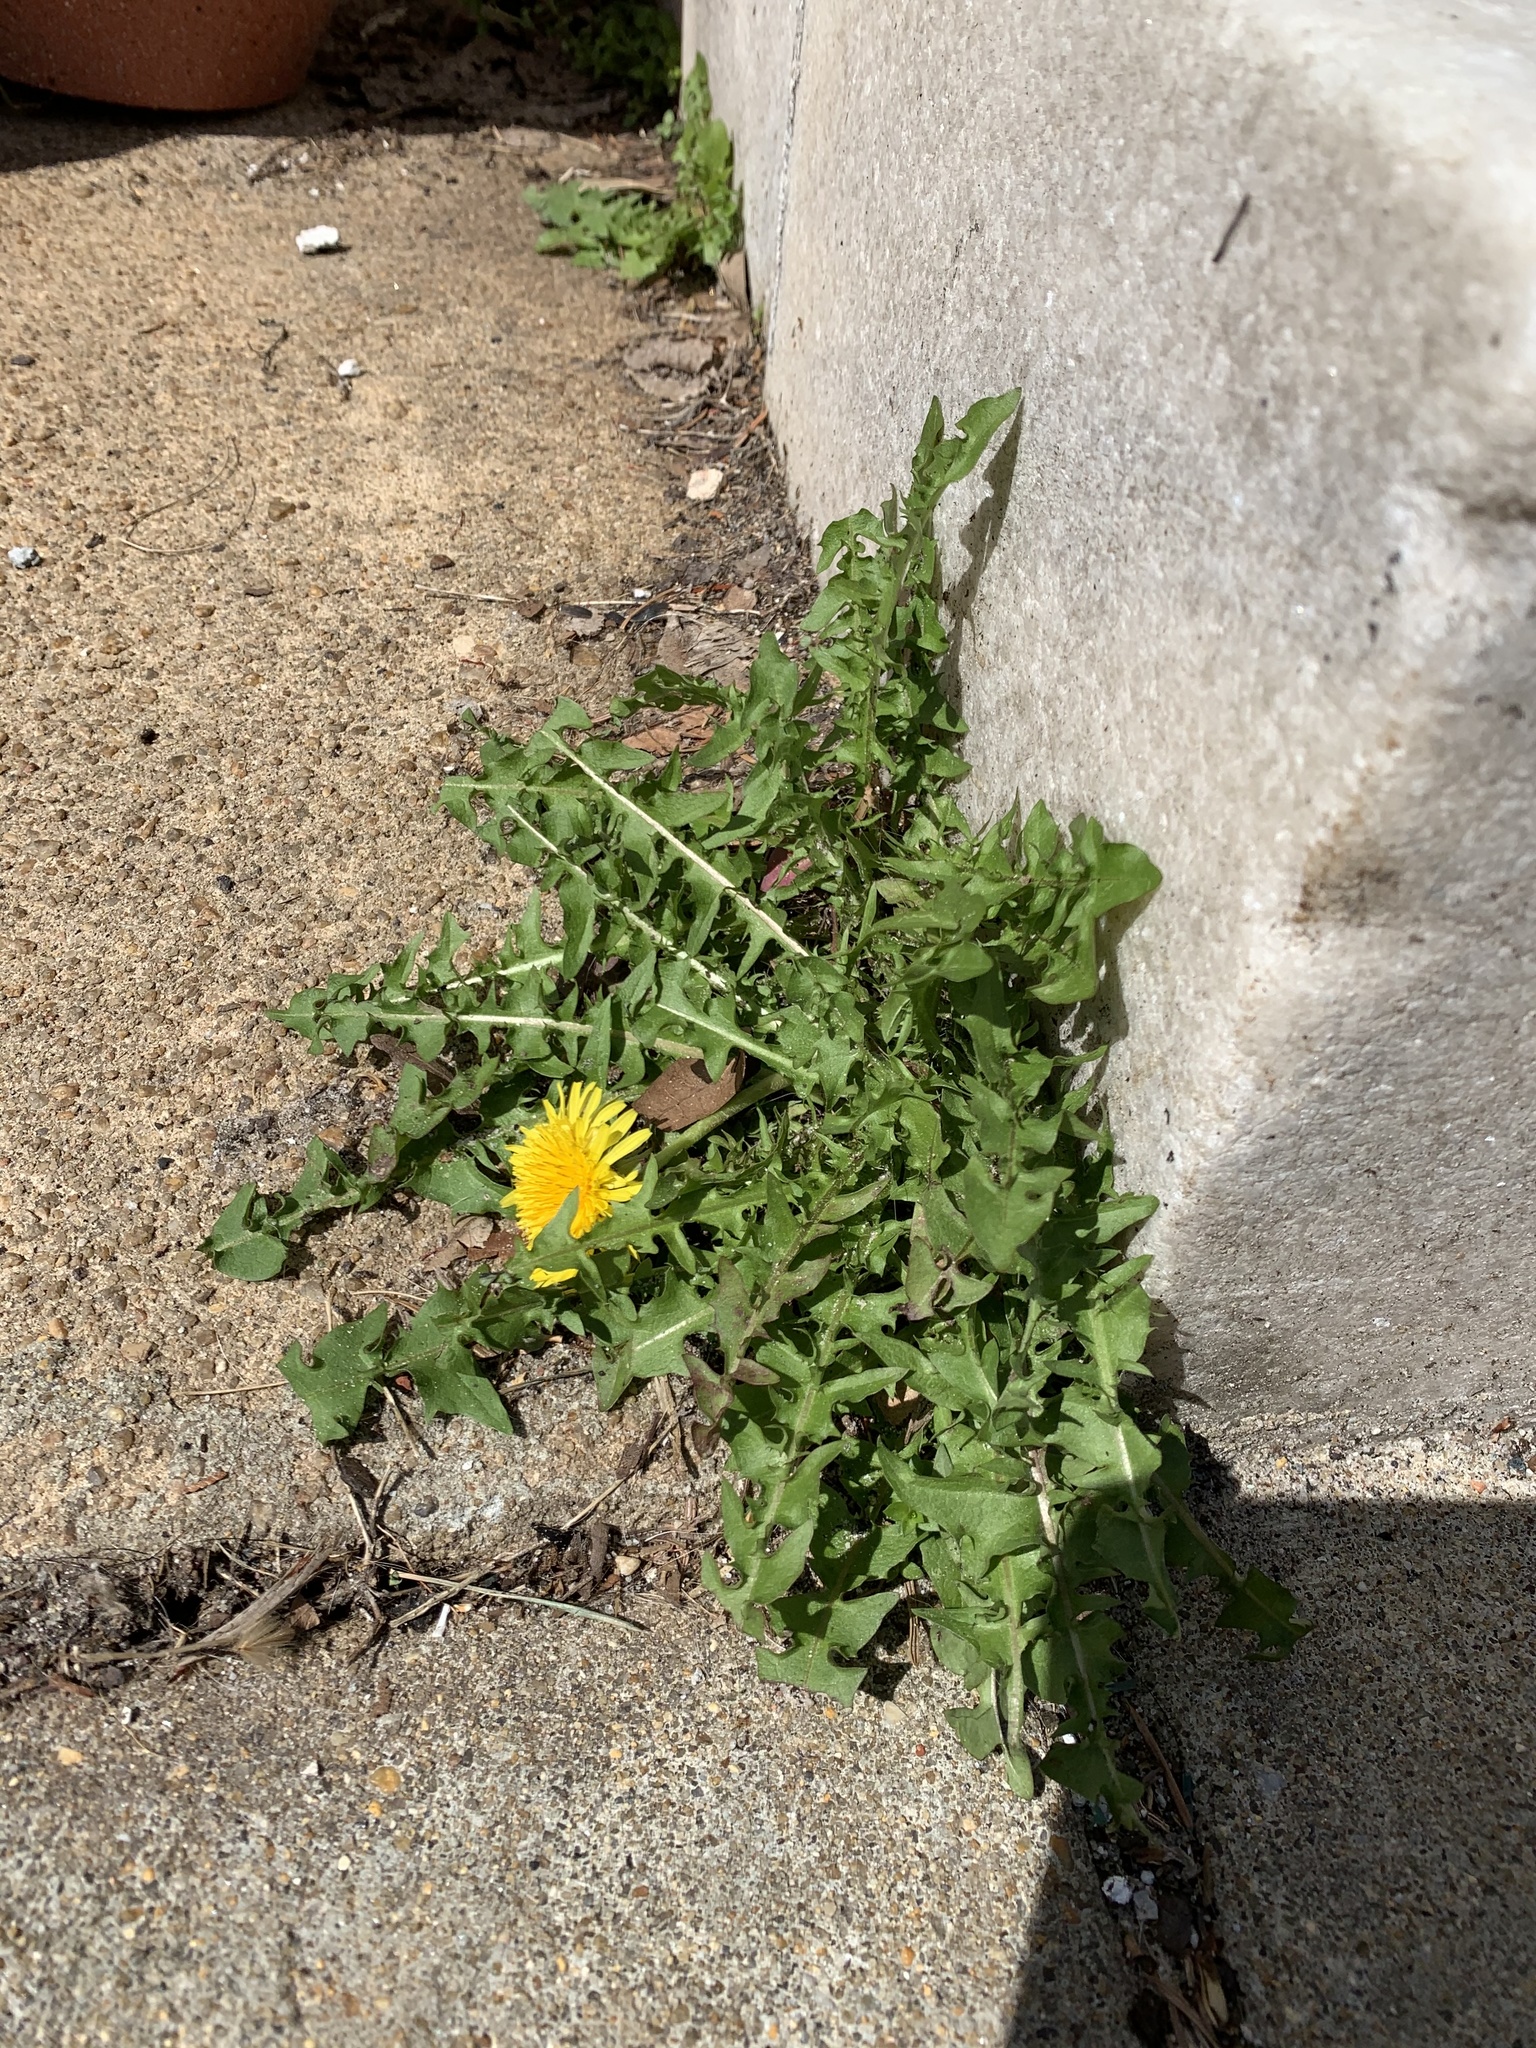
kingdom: Plantae
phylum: Tracheophyta
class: Magnoliopsida
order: Asterales
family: Asteraceae
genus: Taraxacum
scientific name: Taraxacum officinale
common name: Common dandelion
